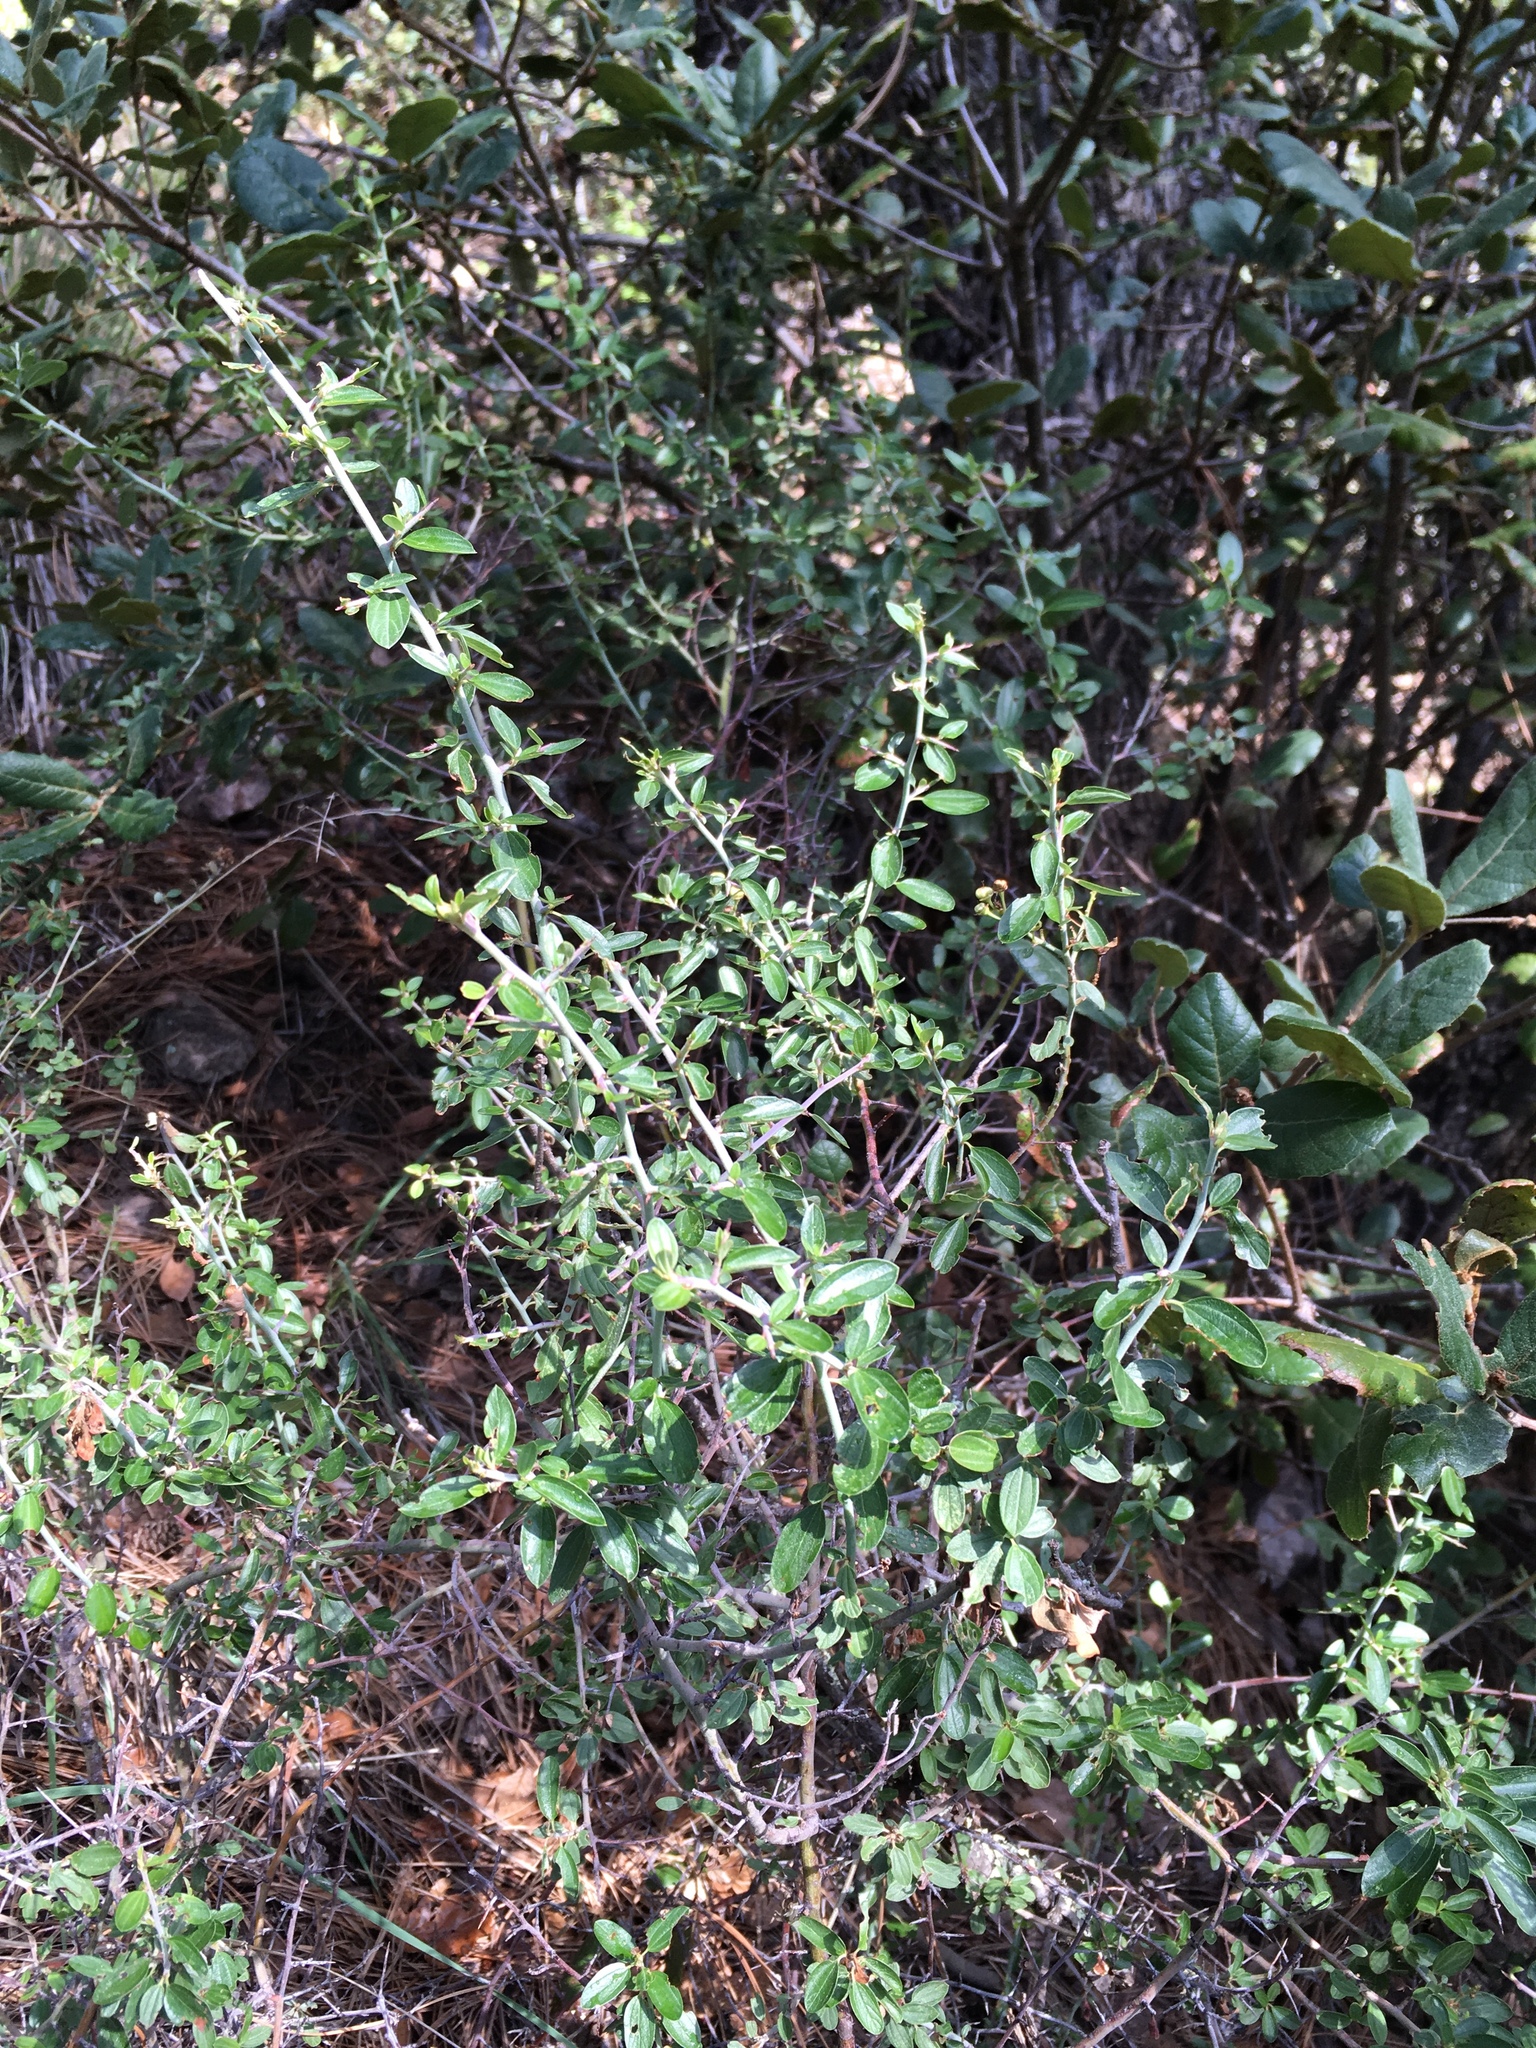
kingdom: Plantae
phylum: Tracheophyta
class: Magnoliopsida
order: Rosales
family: Rhamnaceae
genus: Ceanothus
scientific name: Ceanothus fendleri
